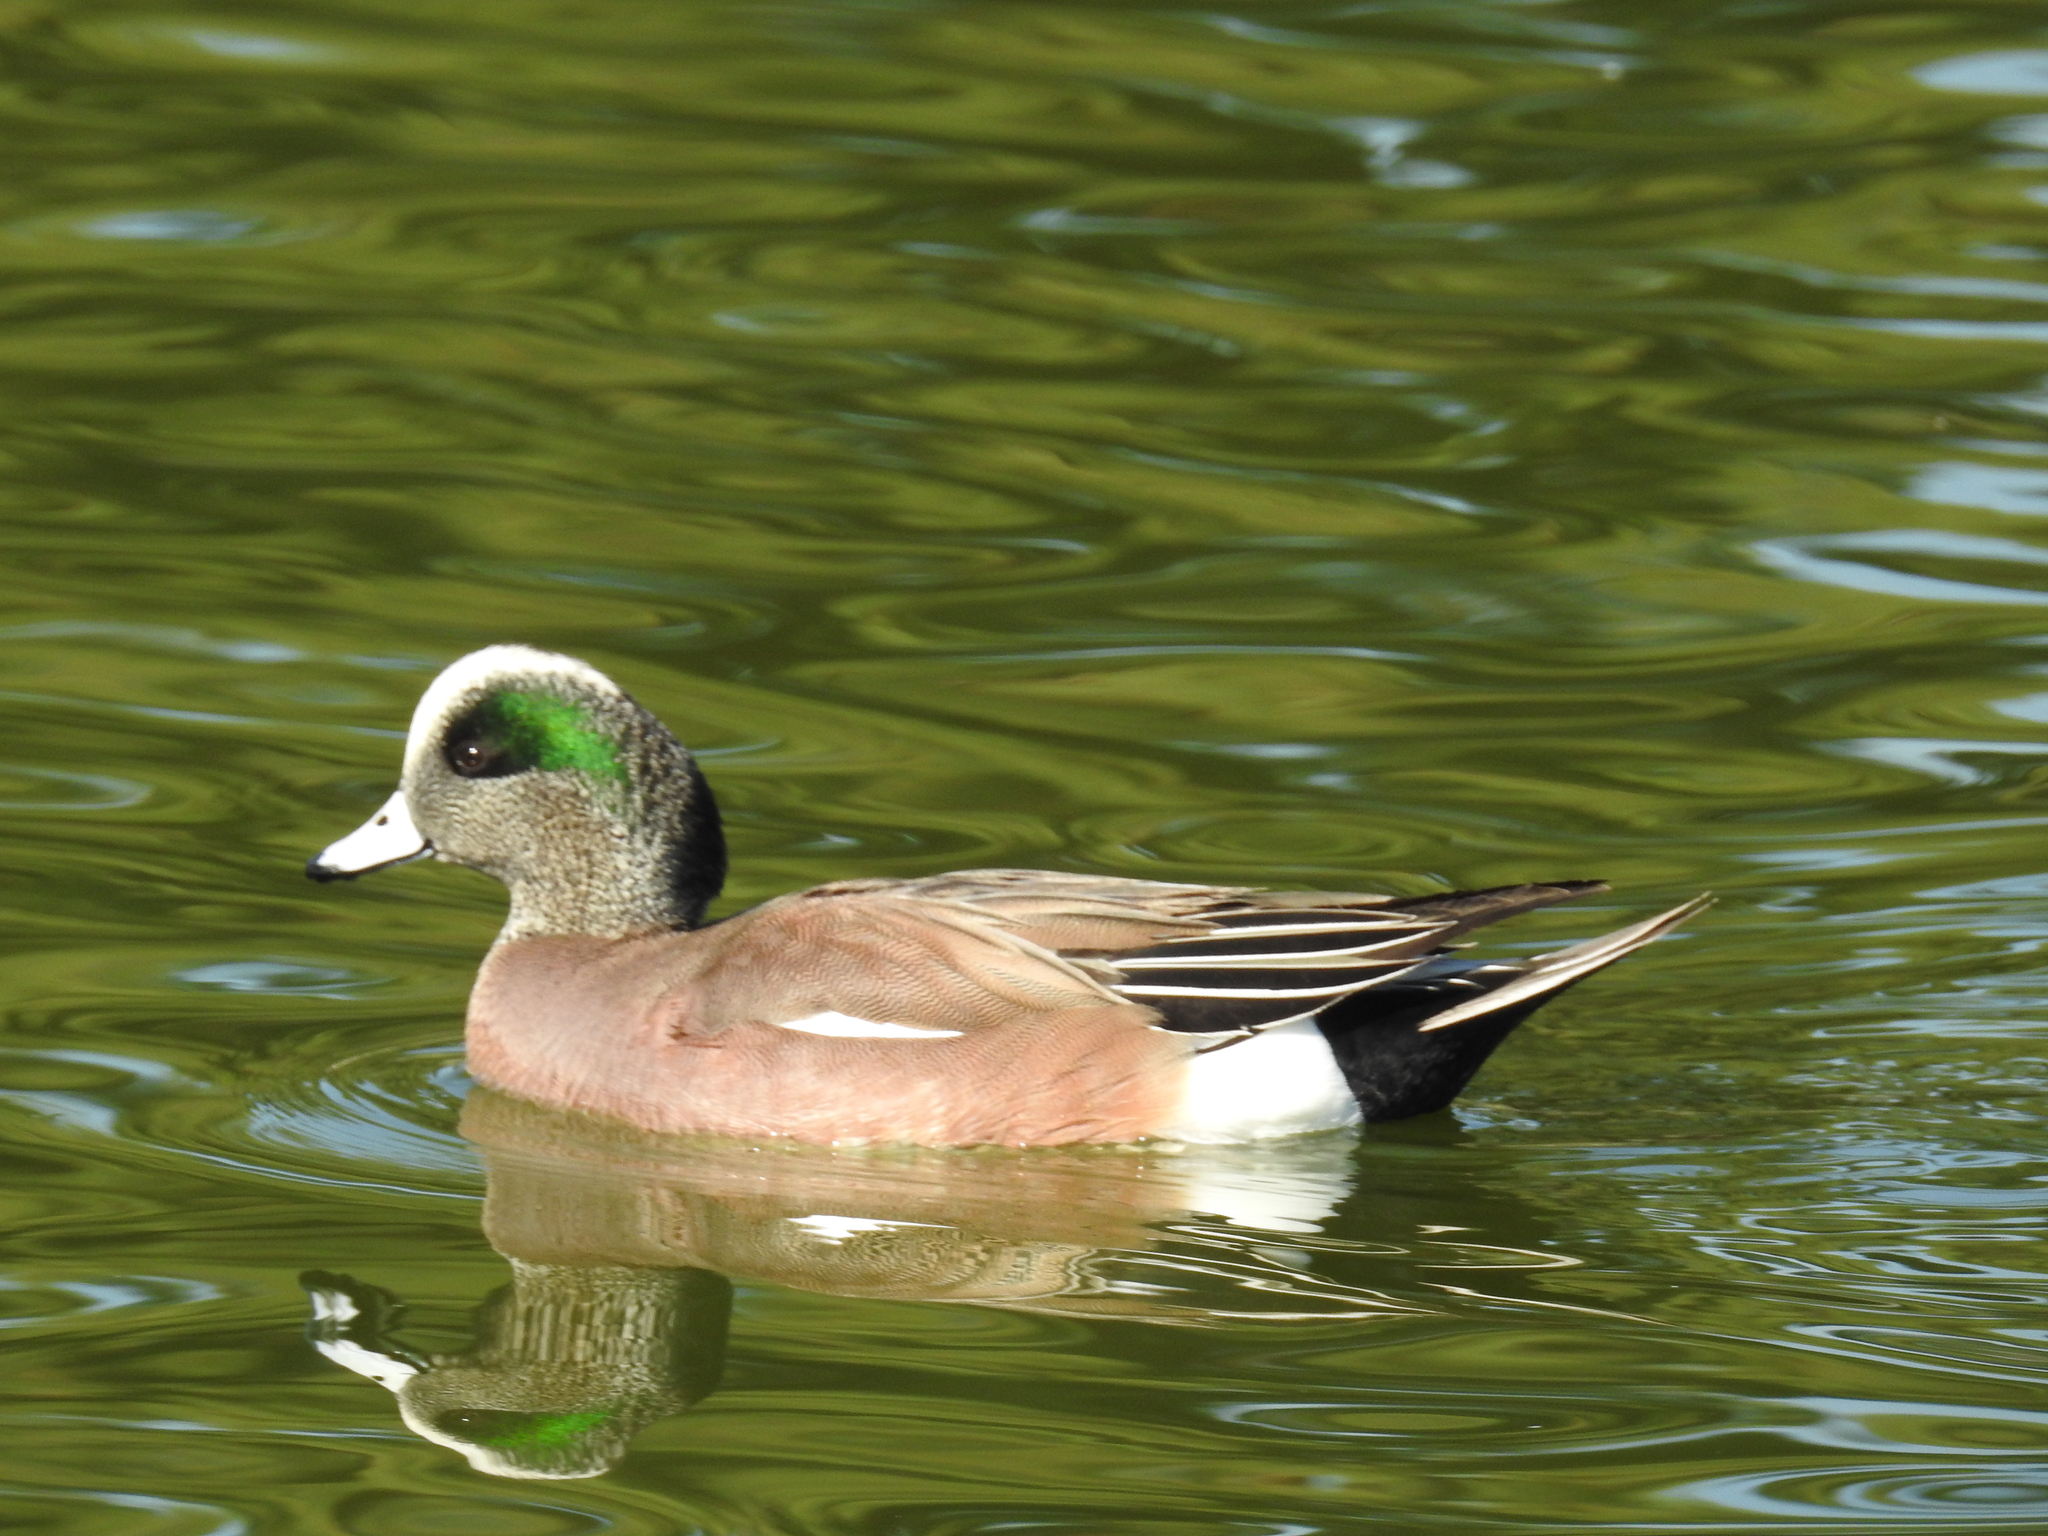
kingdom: Animalia
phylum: Chordata
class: Aves
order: Anseriformes
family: Anatidae
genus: Mareca
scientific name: Mareca americana
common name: American wigeon
